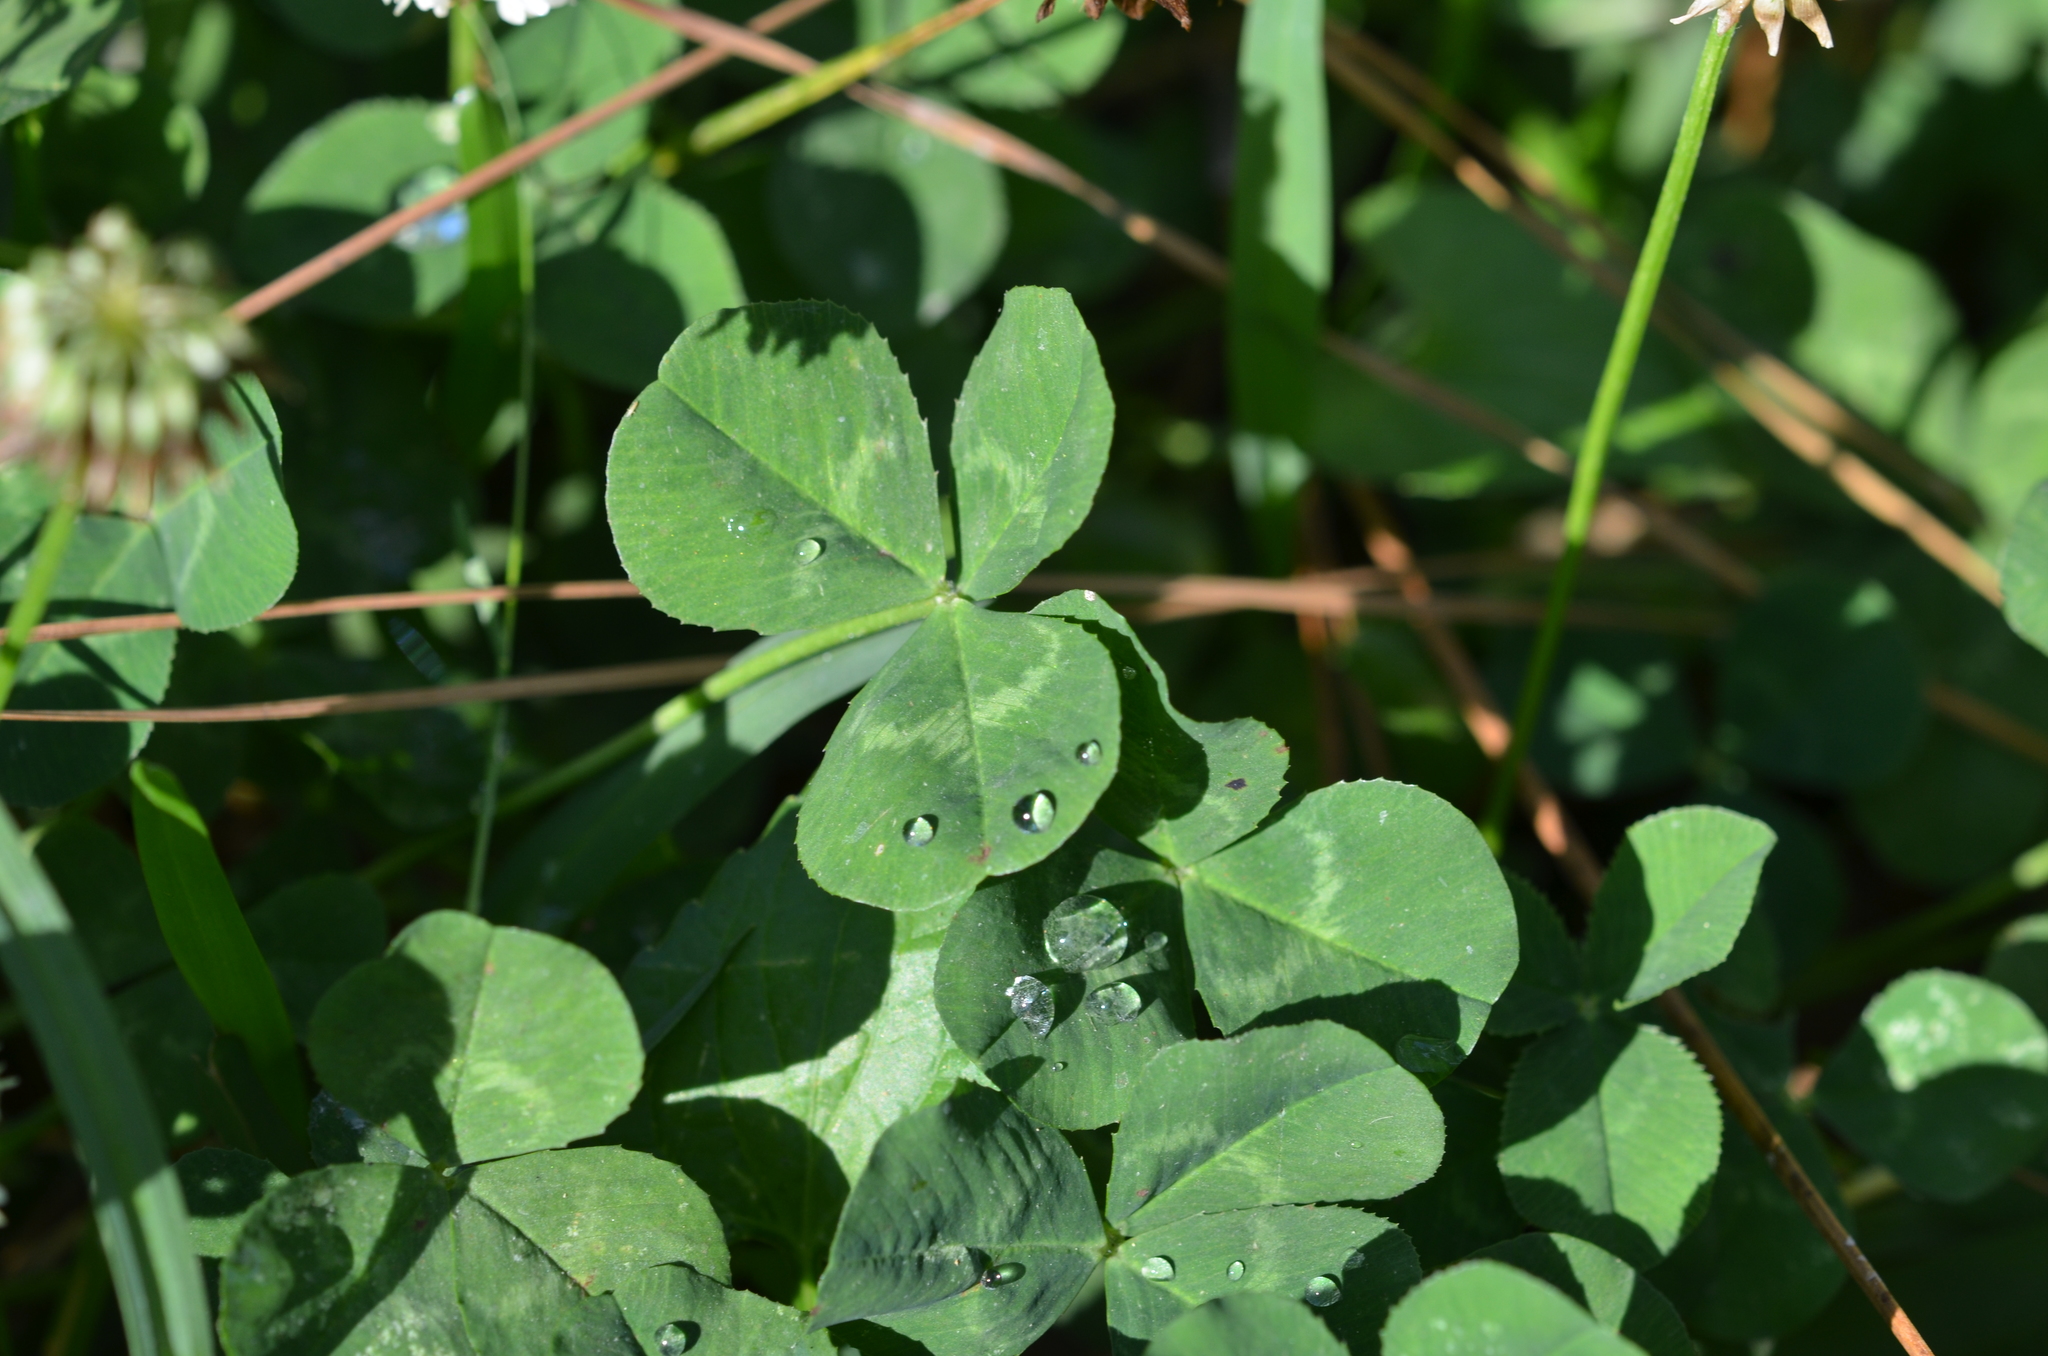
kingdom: Plantae
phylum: Tracheophyta
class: Magnoliopsida
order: Fabales
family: Fabaceae
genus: Trifolium
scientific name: Trifolium repens
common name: White clover
